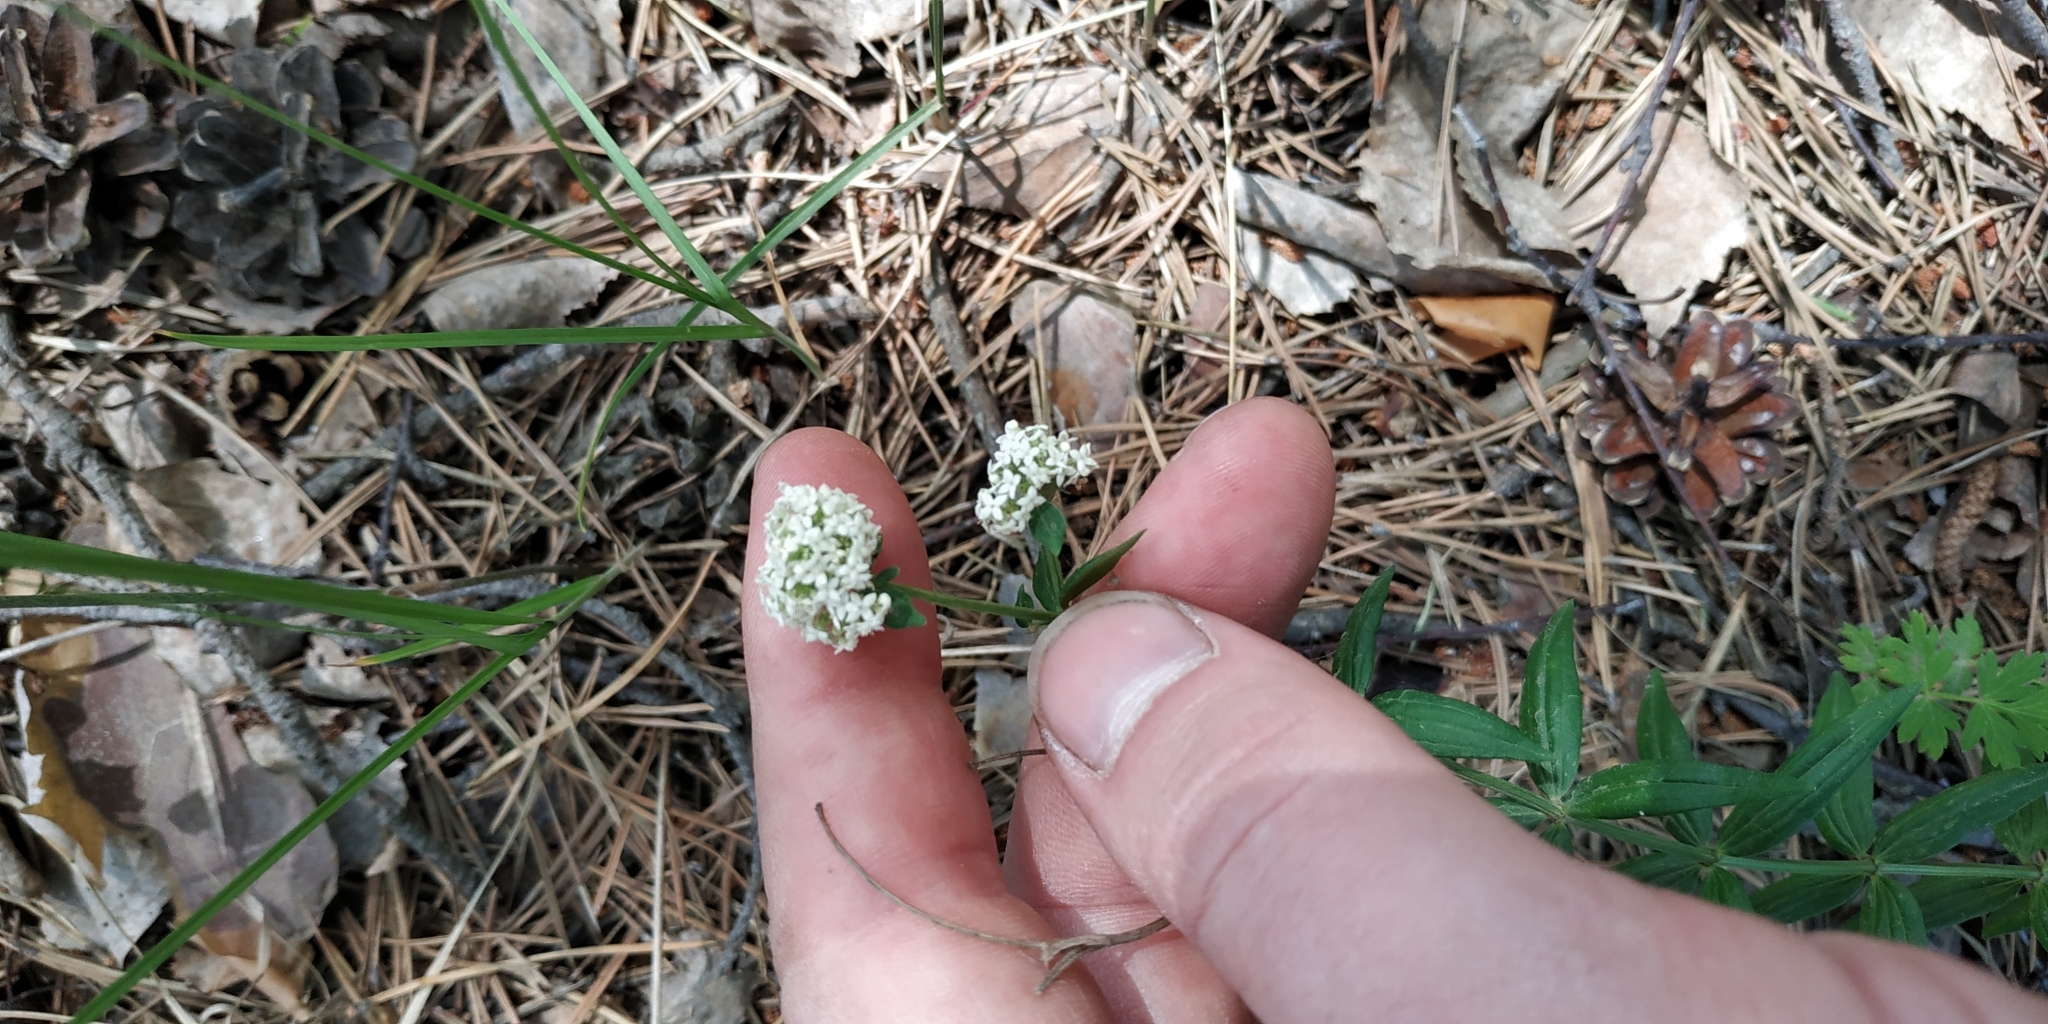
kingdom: Plantae
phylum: Tracheophyta
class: Magnoliopsida
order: Gentianales
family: Rubiaceae
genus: Galium
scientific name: Galium boreale
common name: Northern bedstraw
